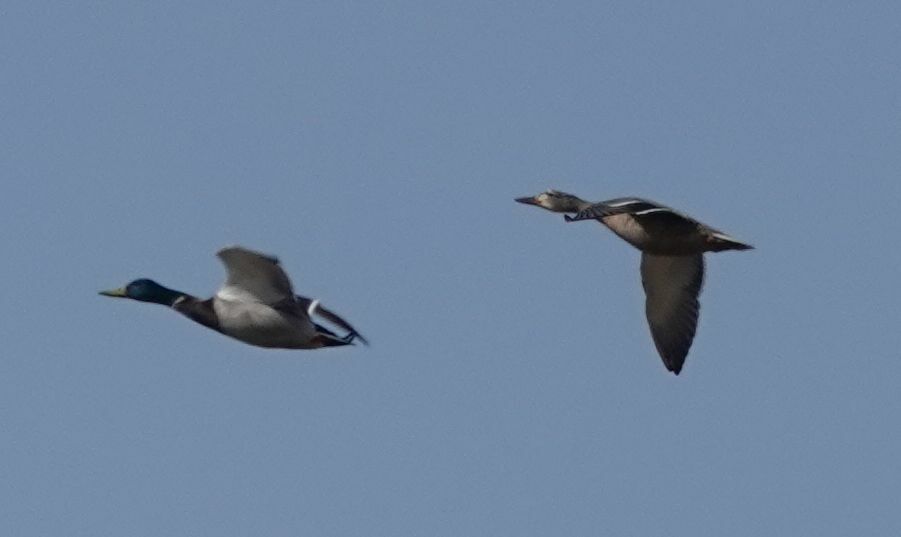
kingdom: Animalia
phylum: Chordata
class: Aves
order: Anseriformes
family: Anatidae
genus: Anas
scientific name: Anas platyrhynchos
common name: Mallard
